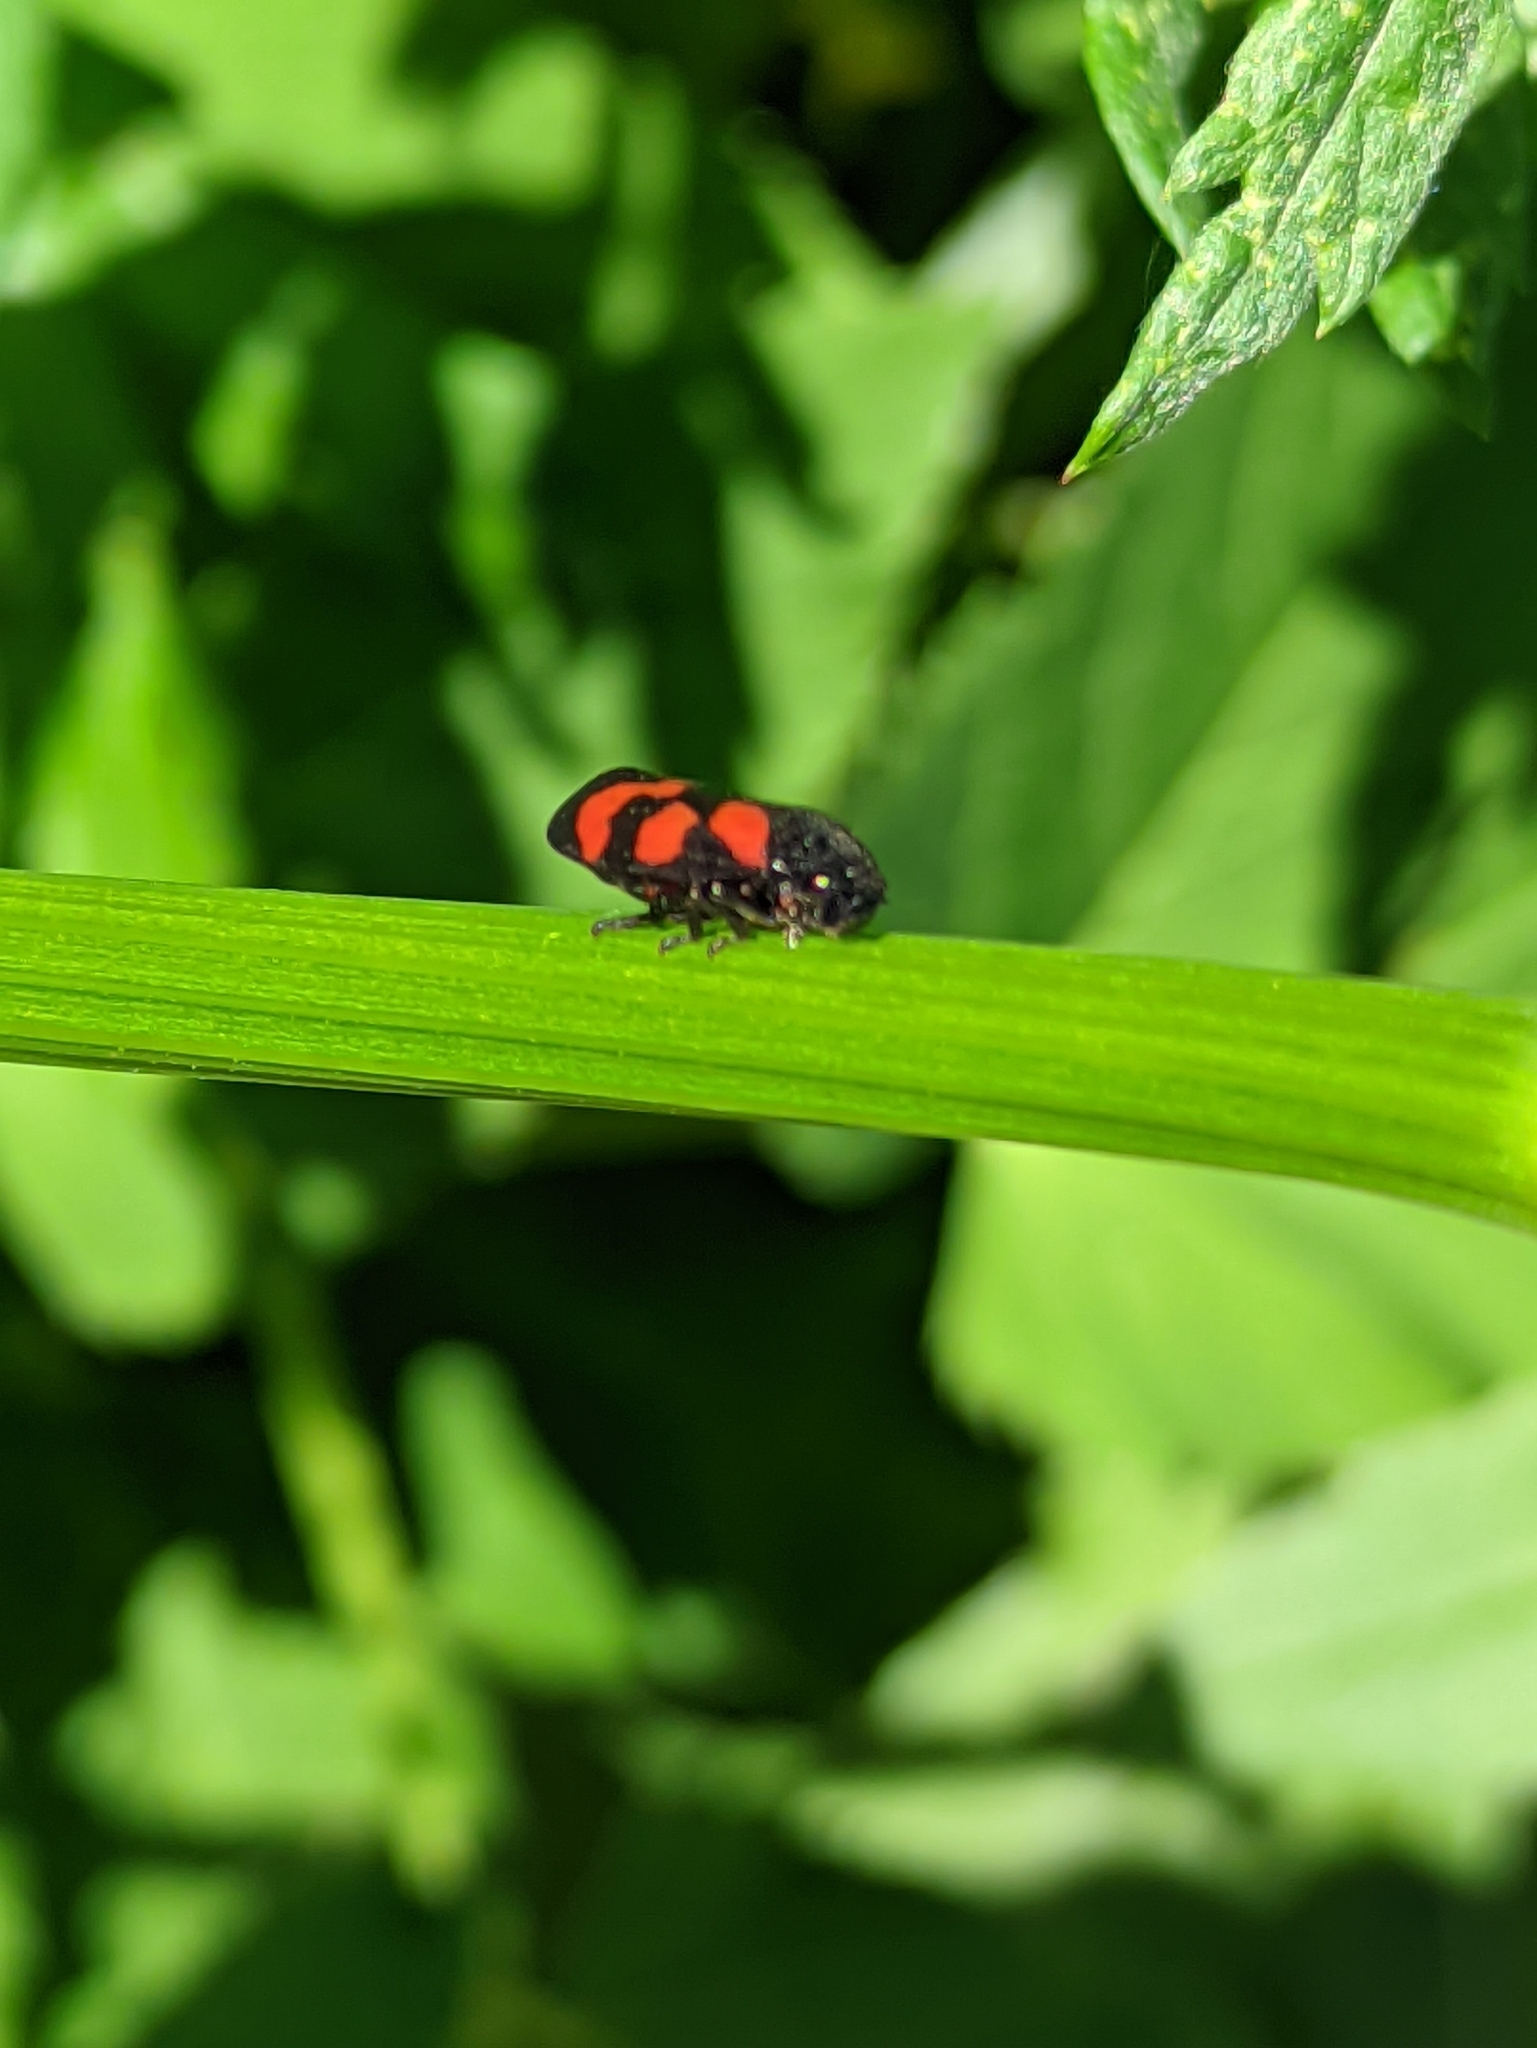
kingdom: Animalia
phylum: Arthropoda
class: Insecta
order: Hemiptera
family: Cercopidae
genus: Cercopis
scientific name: Cercopis vulnerata
